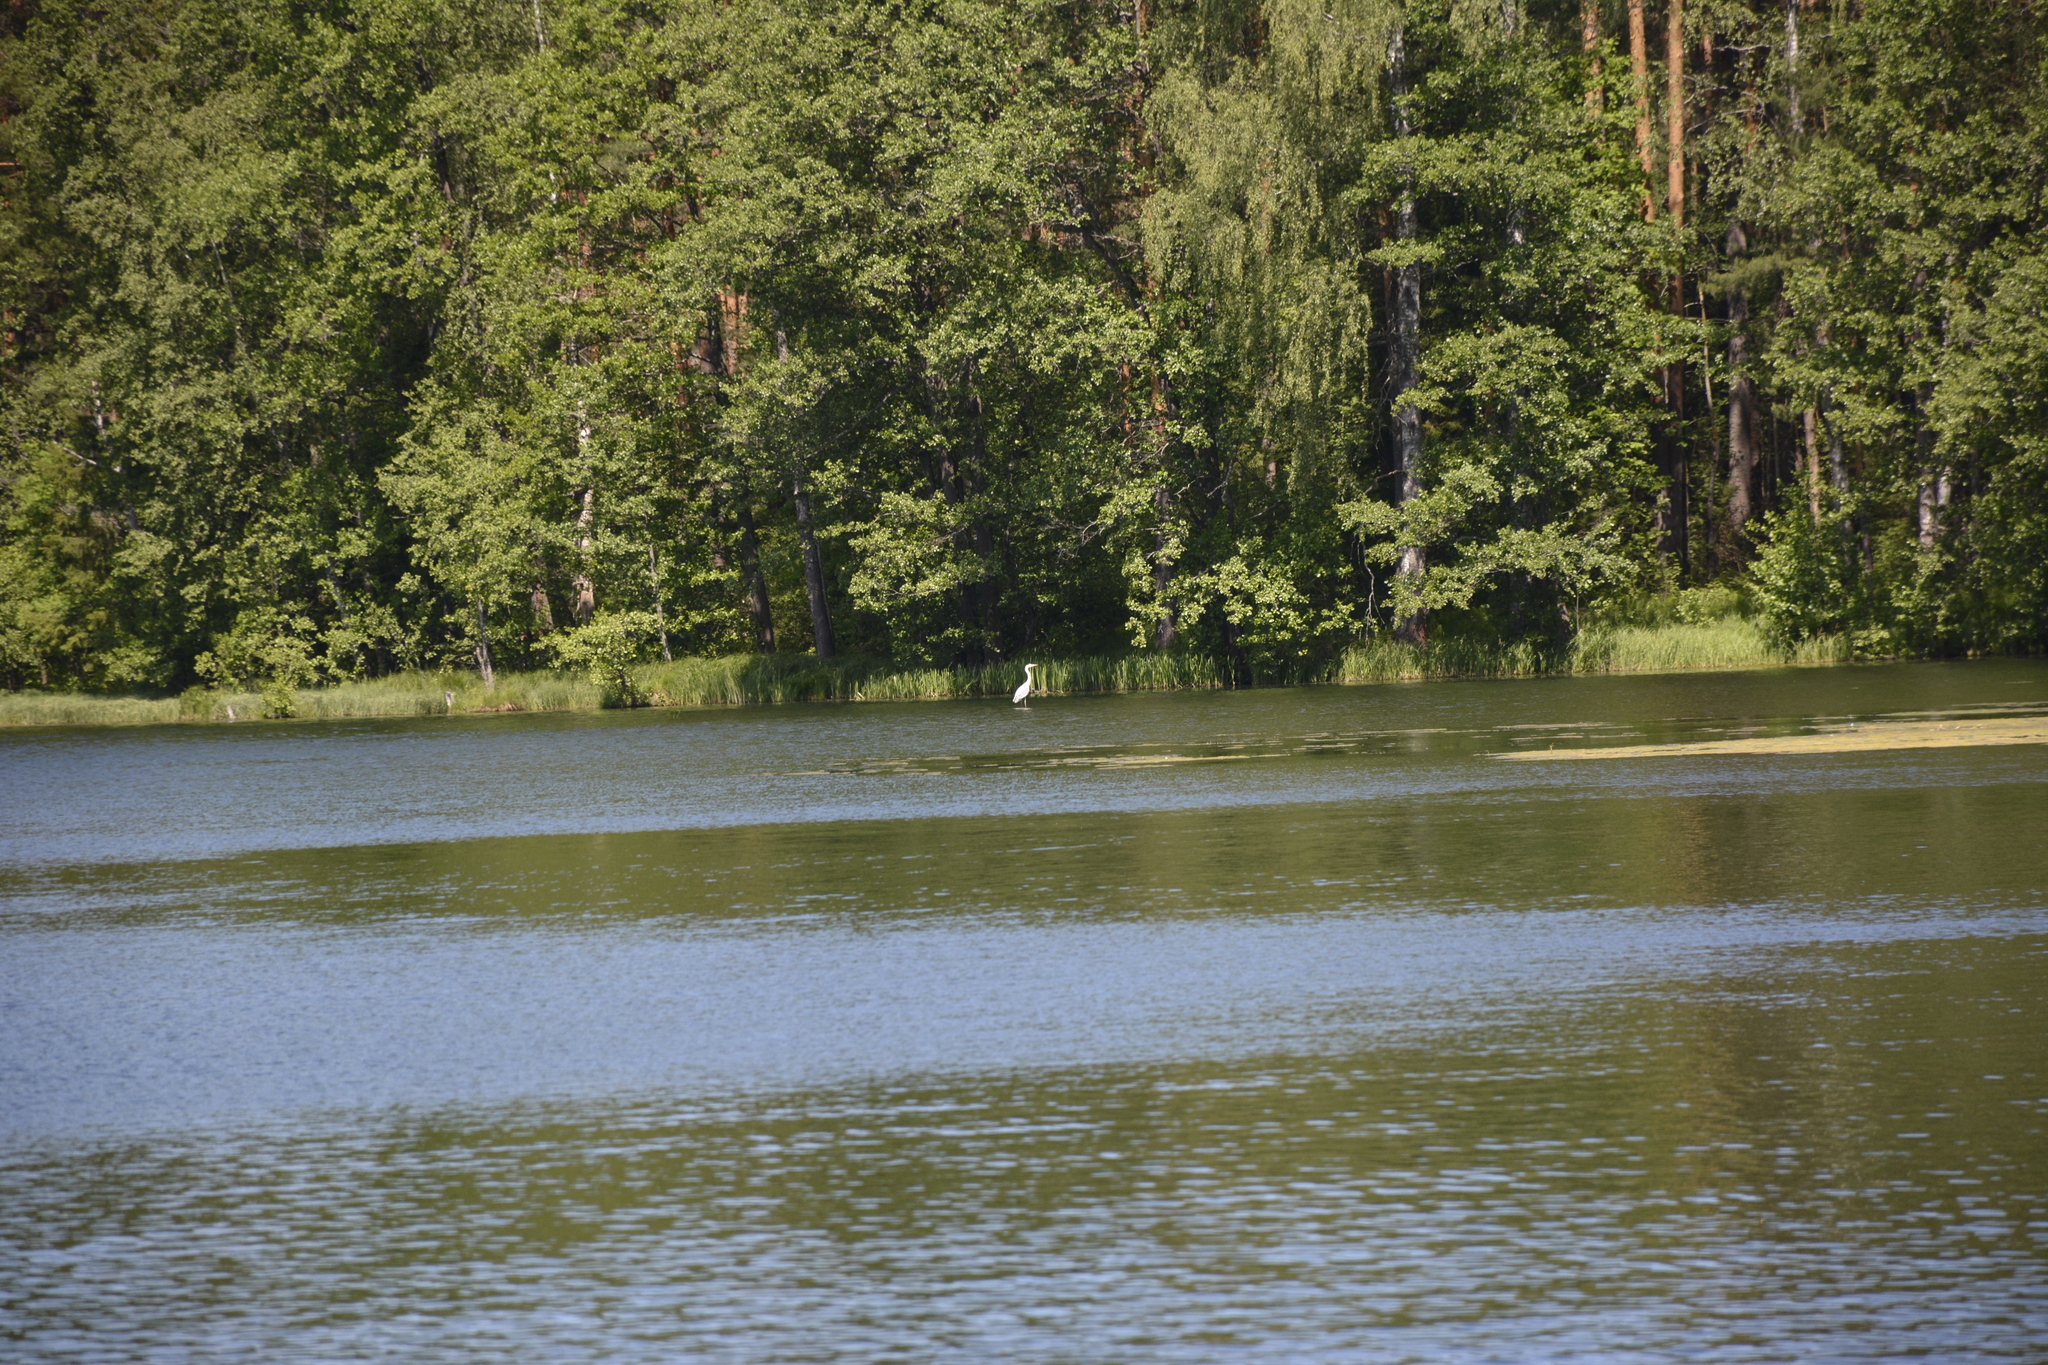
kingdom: Animalia
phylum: Chordata
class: Aves
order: Pelecaniformes
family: Ardeidae
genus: Ardea
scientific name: Ardea cinerea
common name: Grey heron
